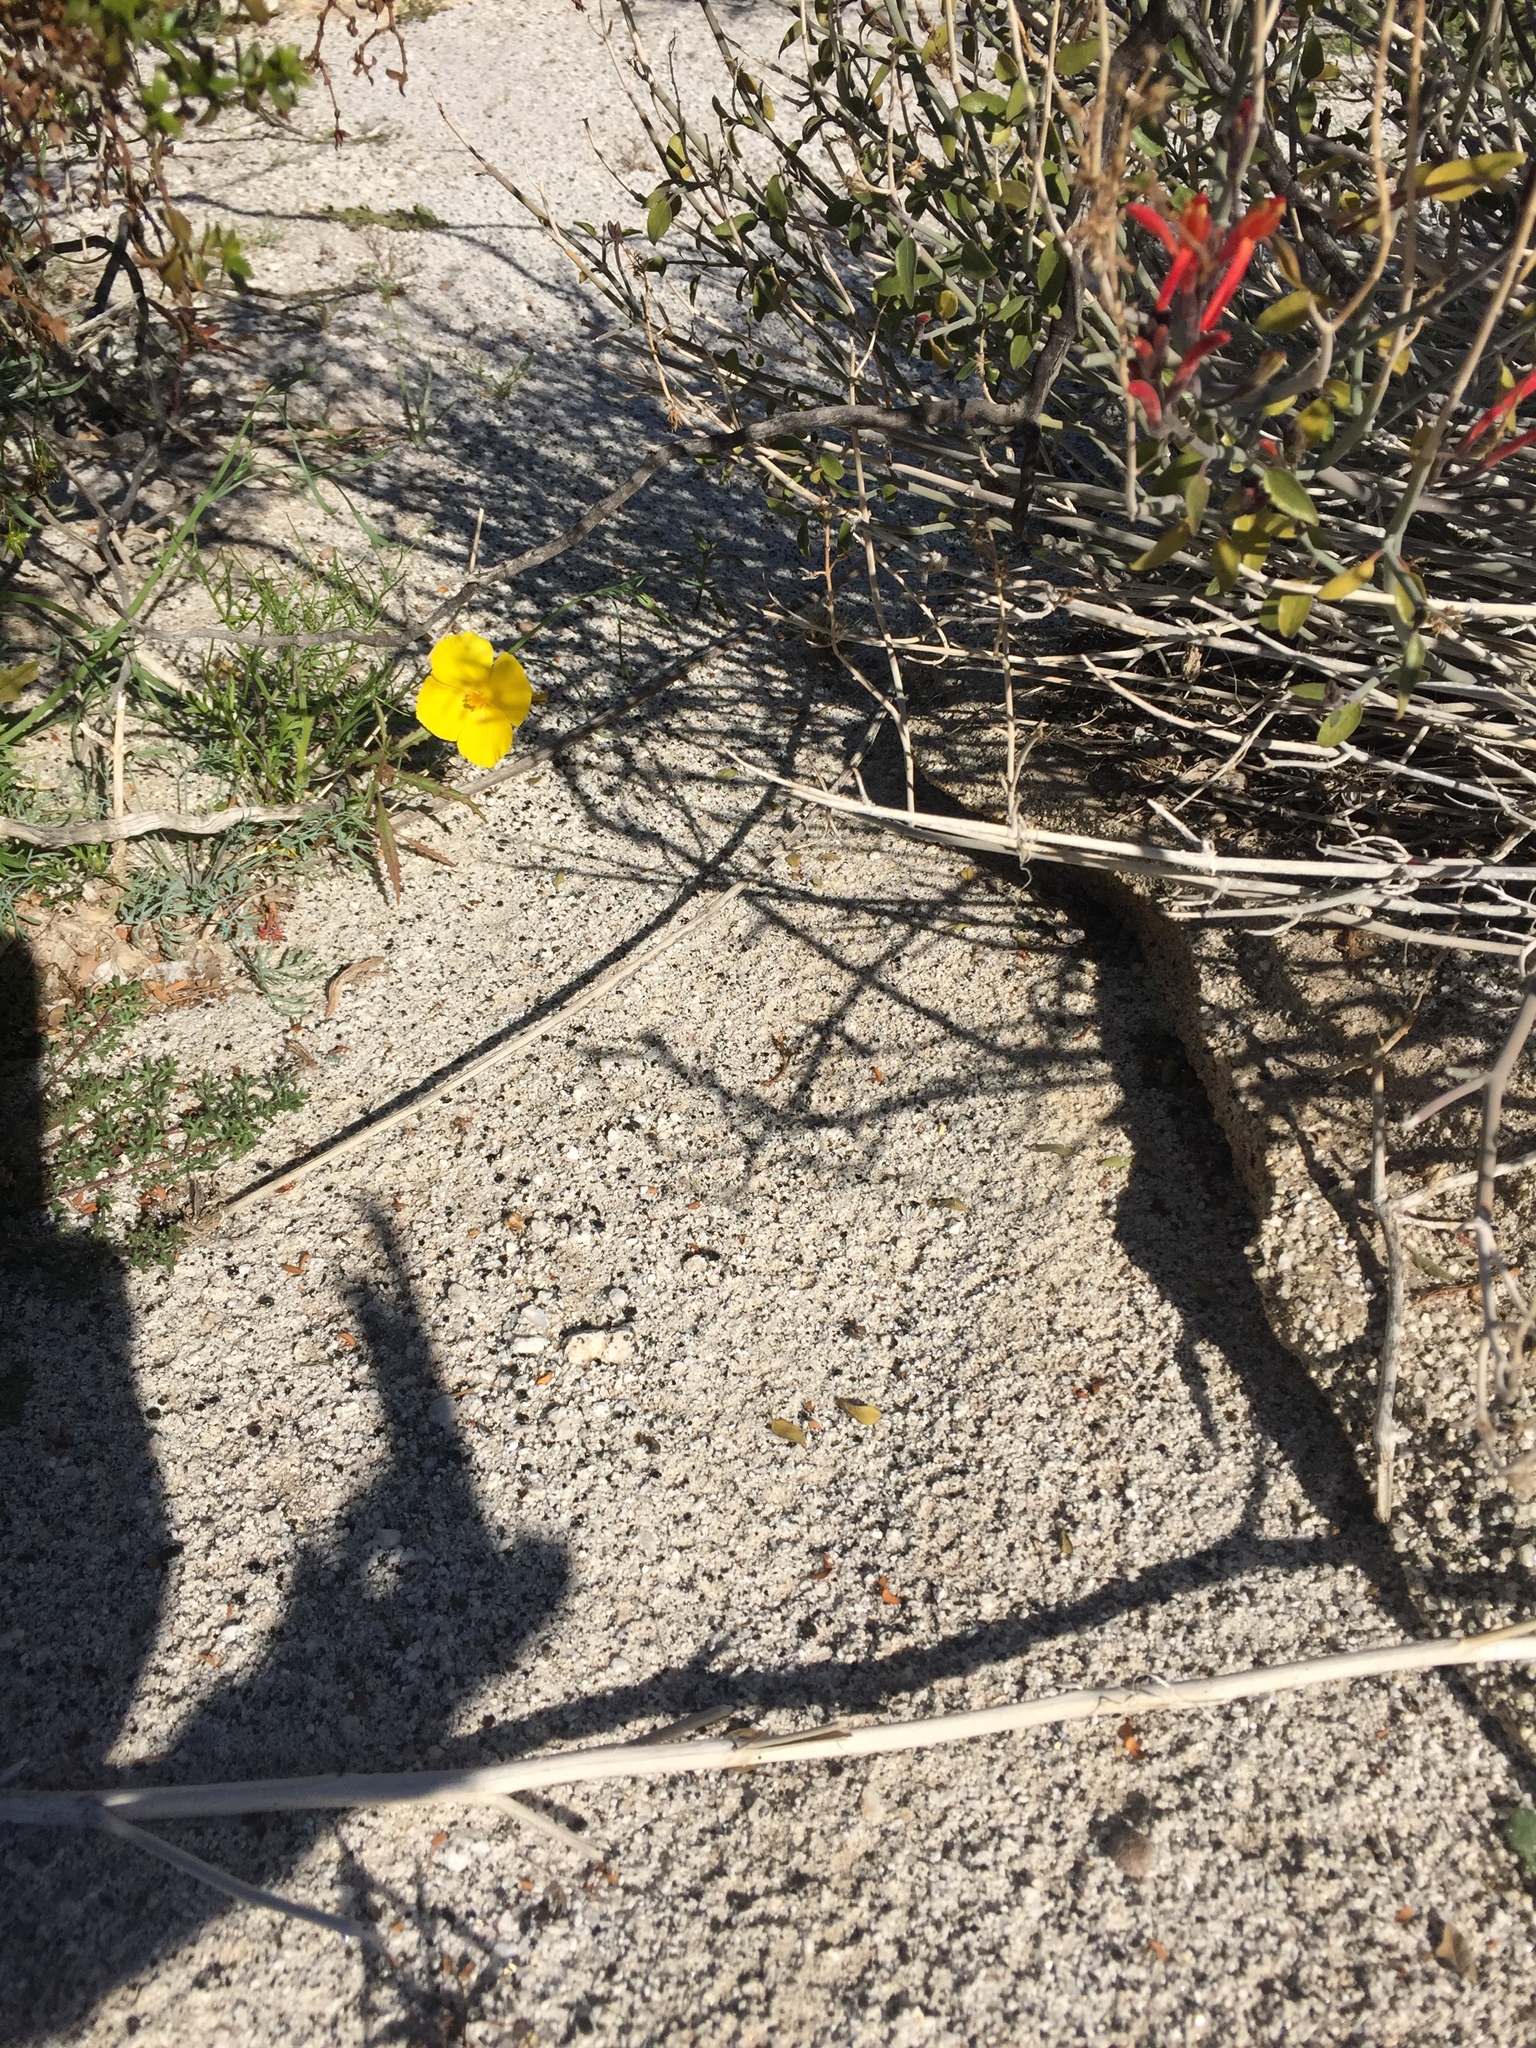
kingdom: Plantae
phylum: Tracheophyta
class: Magnoliopsida
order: Ranunculales
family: Papaveraceae
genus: Eschscholzia
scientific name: Eschscholzia parishii
